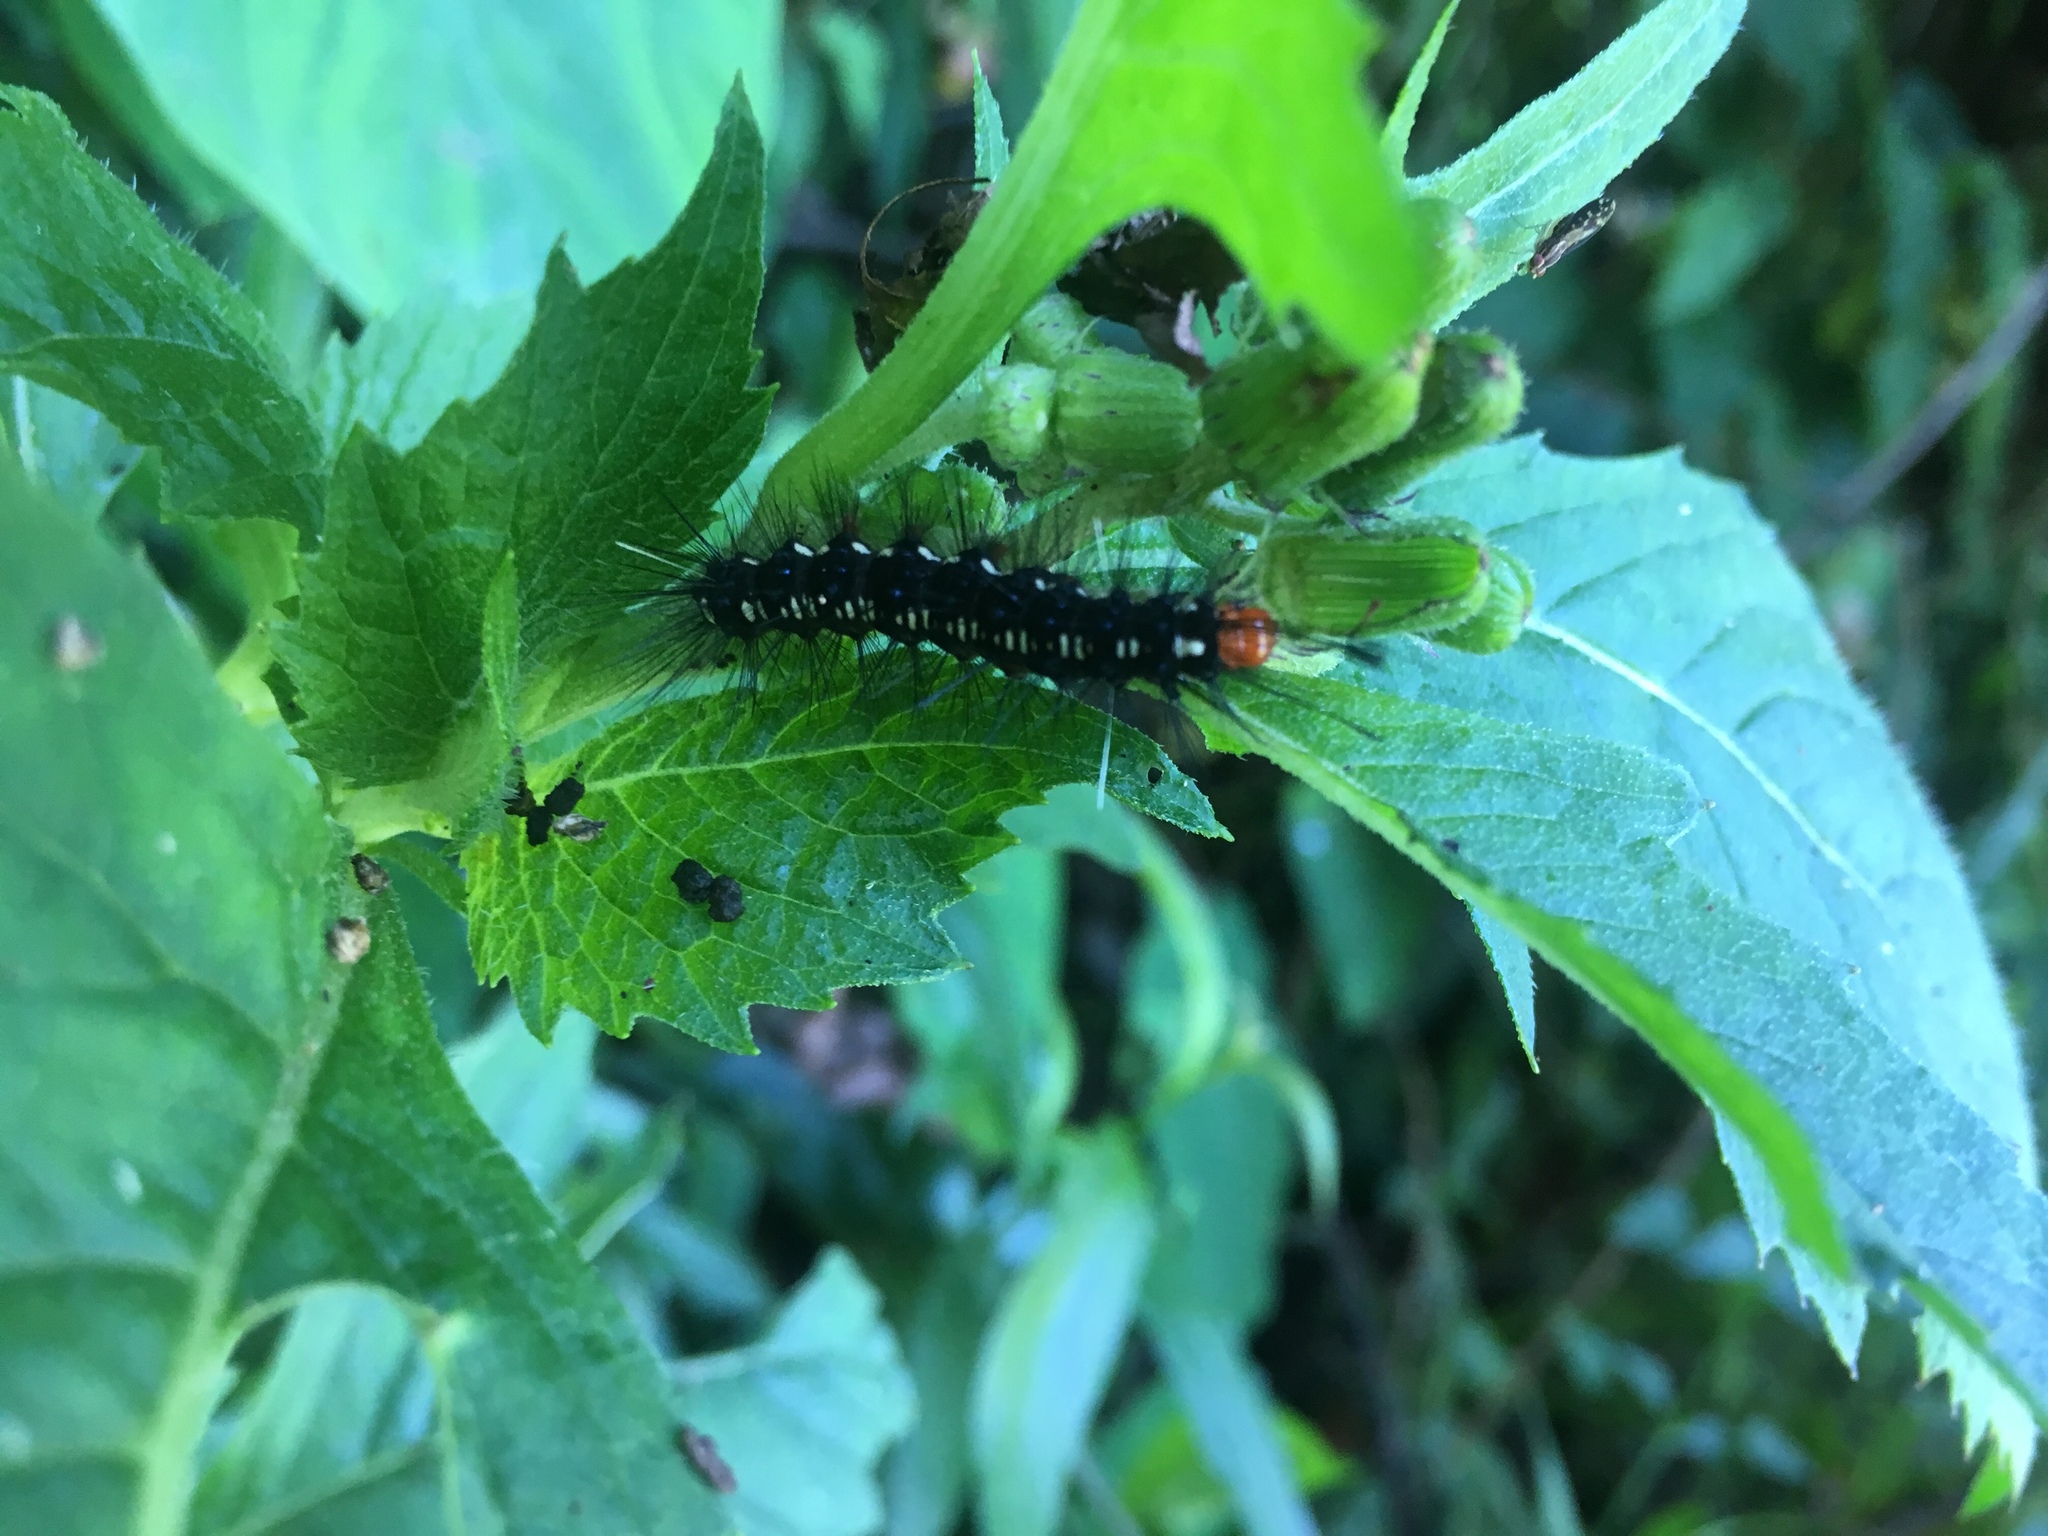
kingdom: Animalia
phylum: Arthropoda
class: Insecta
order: Lepidoptera
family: Erebidae
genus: Nyctemera
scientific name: Nyctemera adversata
